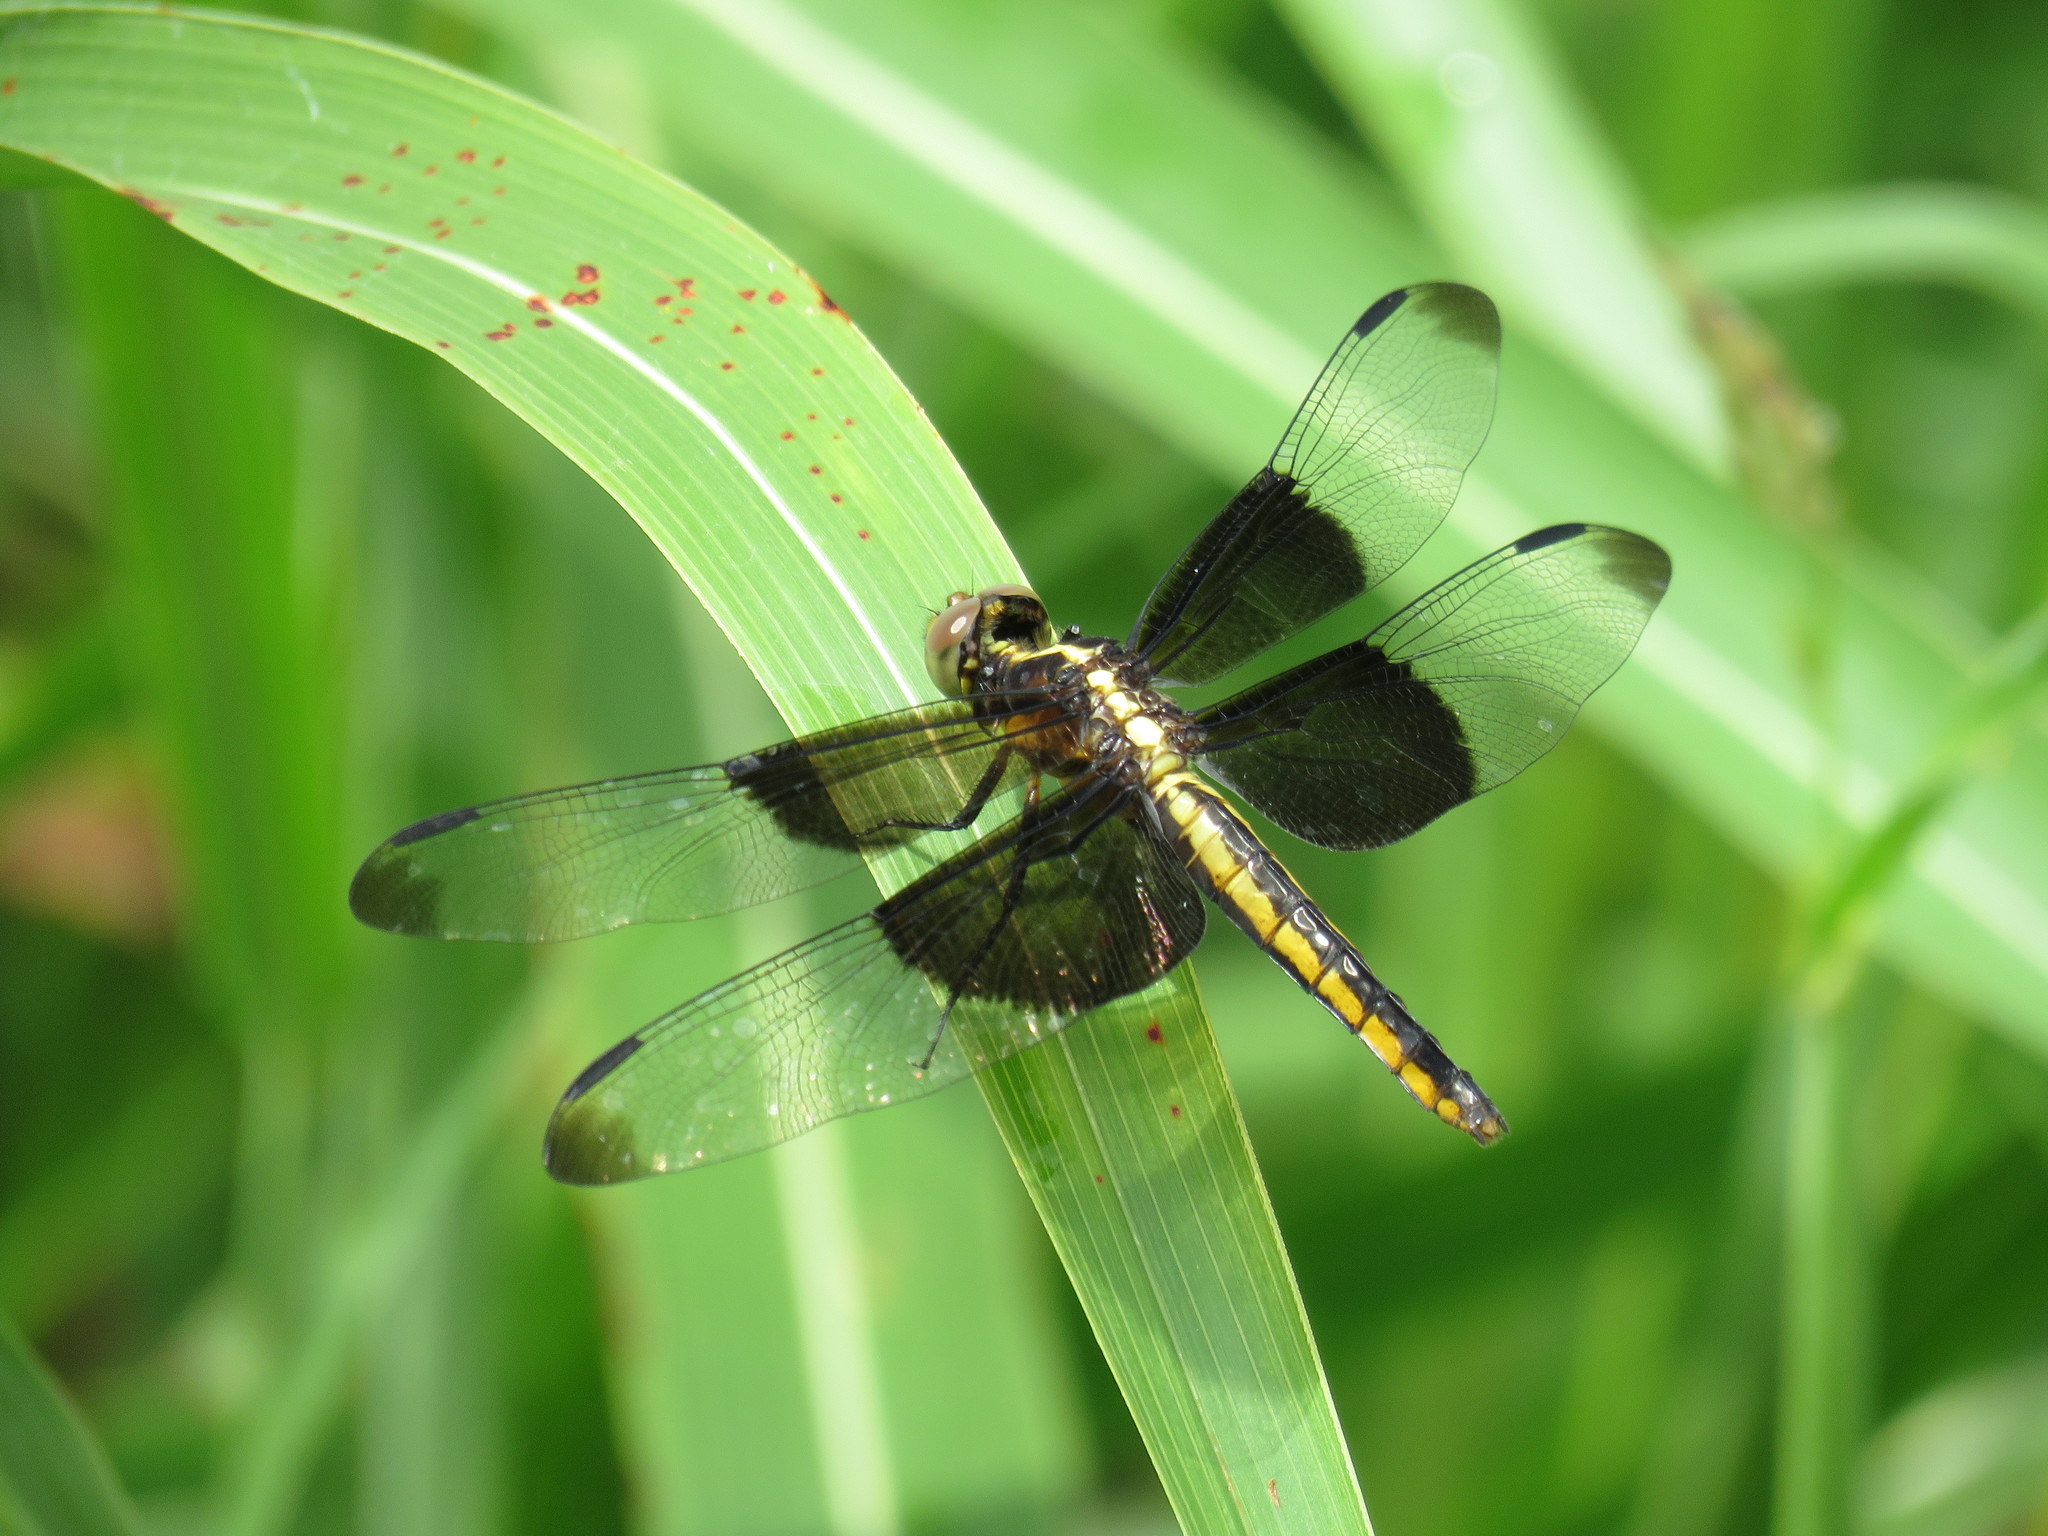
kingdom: Animalia
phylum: Arthropoda
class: Insecta
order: Odonata
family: Libellulidae
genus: Libellula
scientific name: Libellula luctuosa
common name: Widow skimmer
